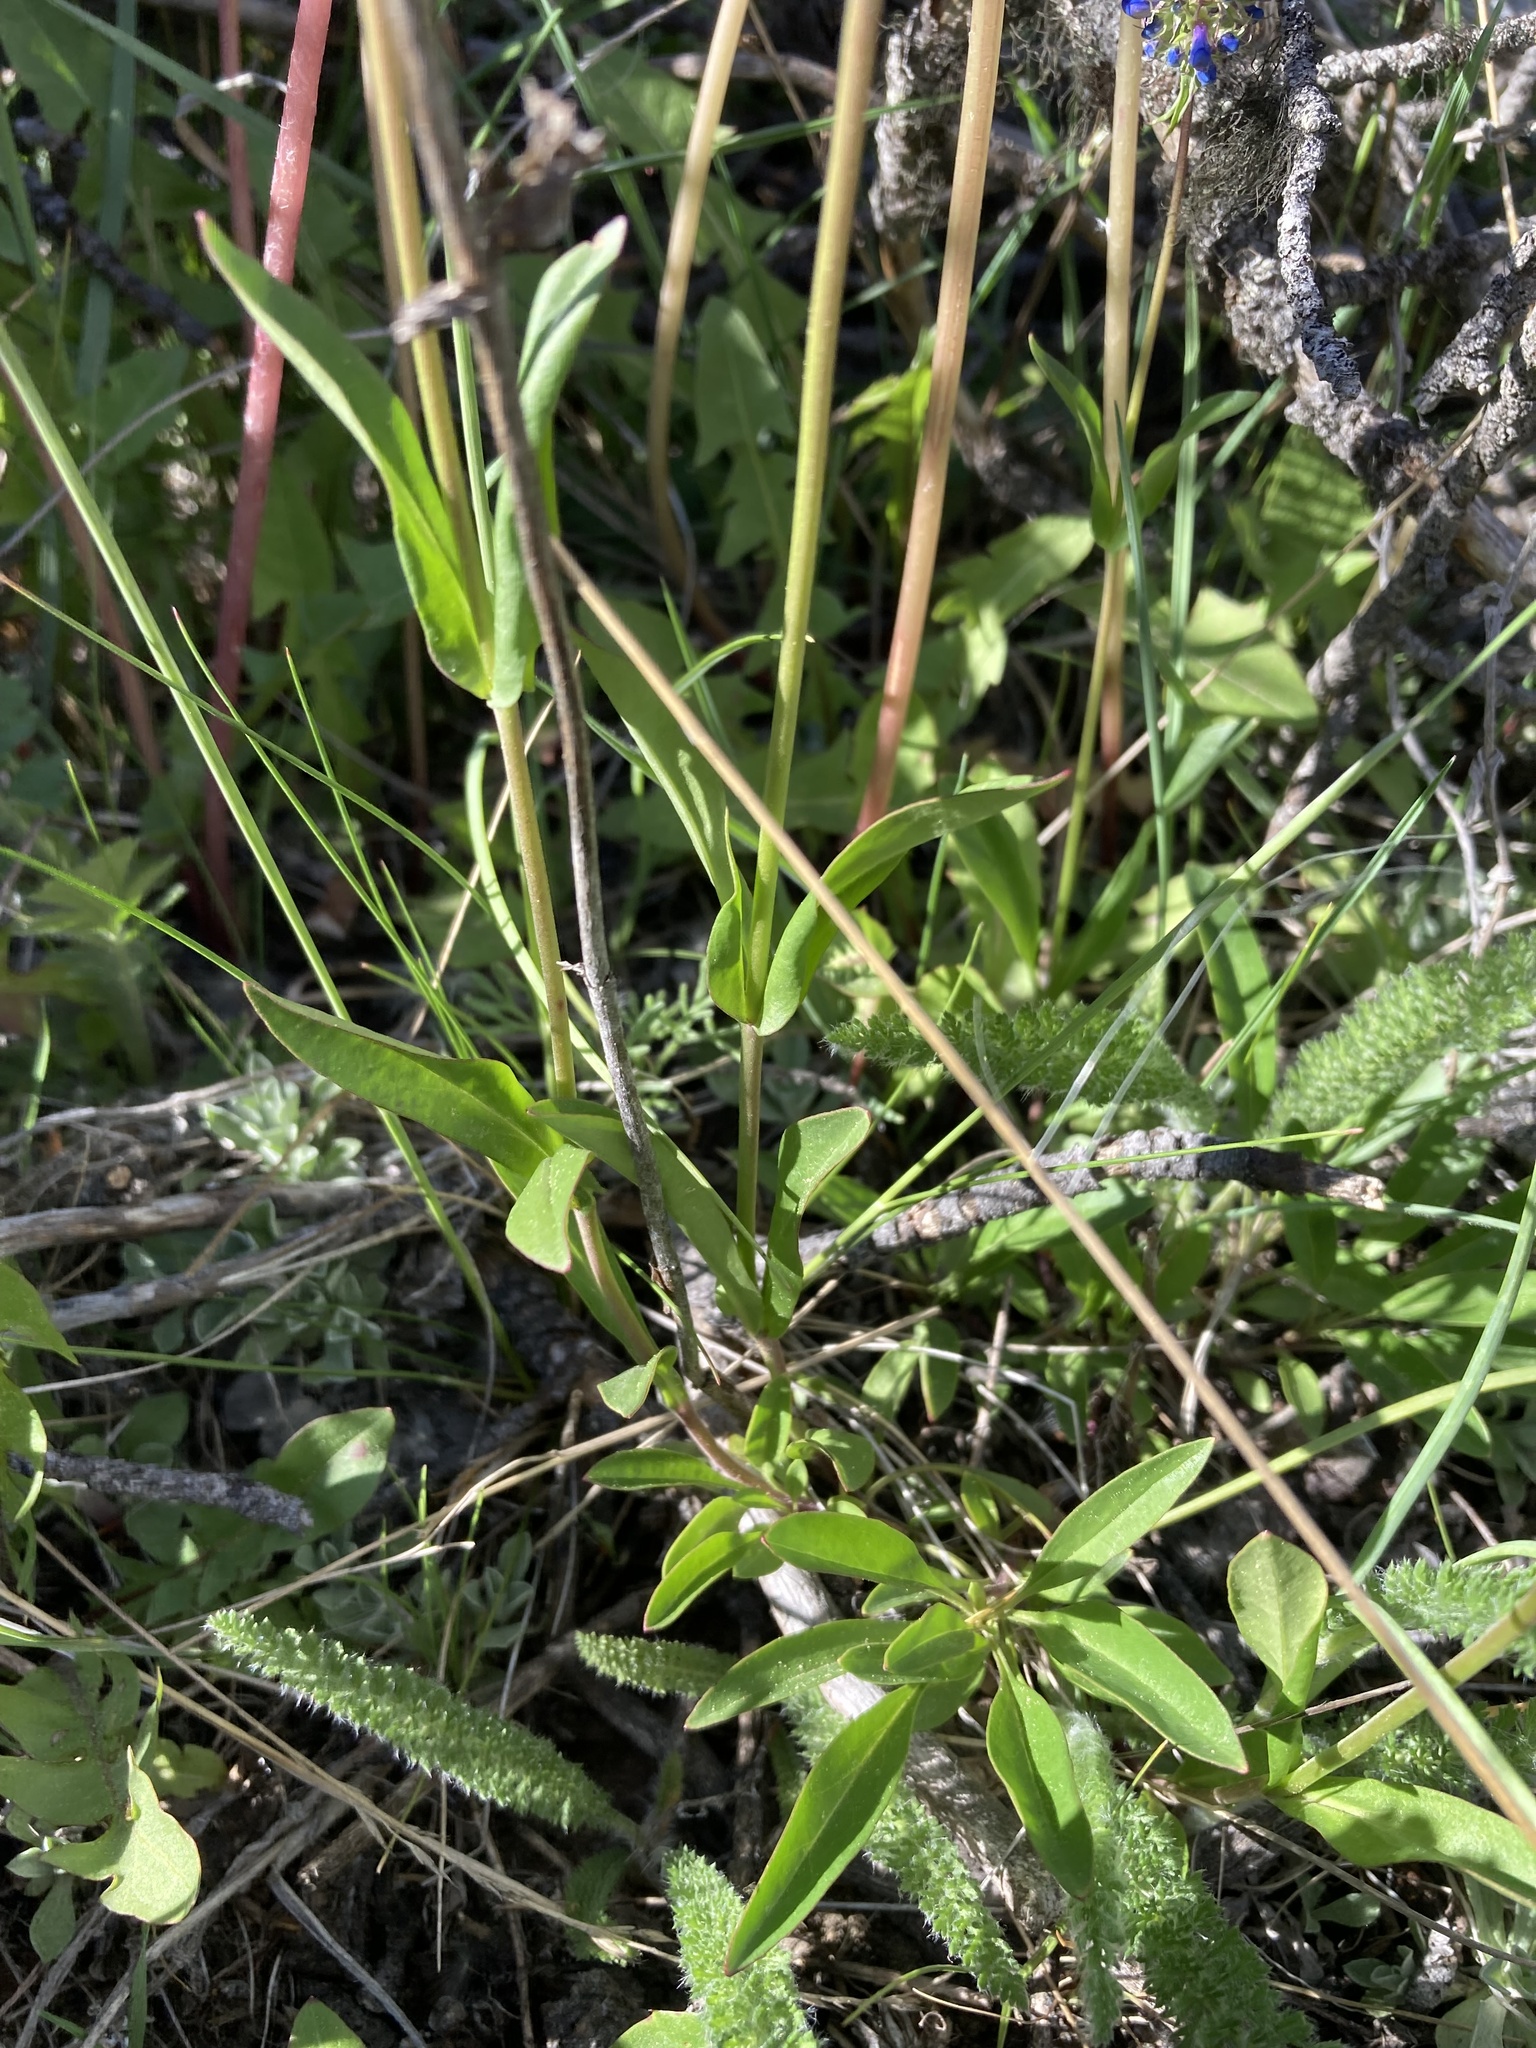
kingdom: Plantae
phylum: Tracheophyta
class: Magnoliopsida
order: Lamiales
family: Plantaginaceae
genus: Penstemon
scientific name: Penstemon procerus
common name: Small-flower penstemon
